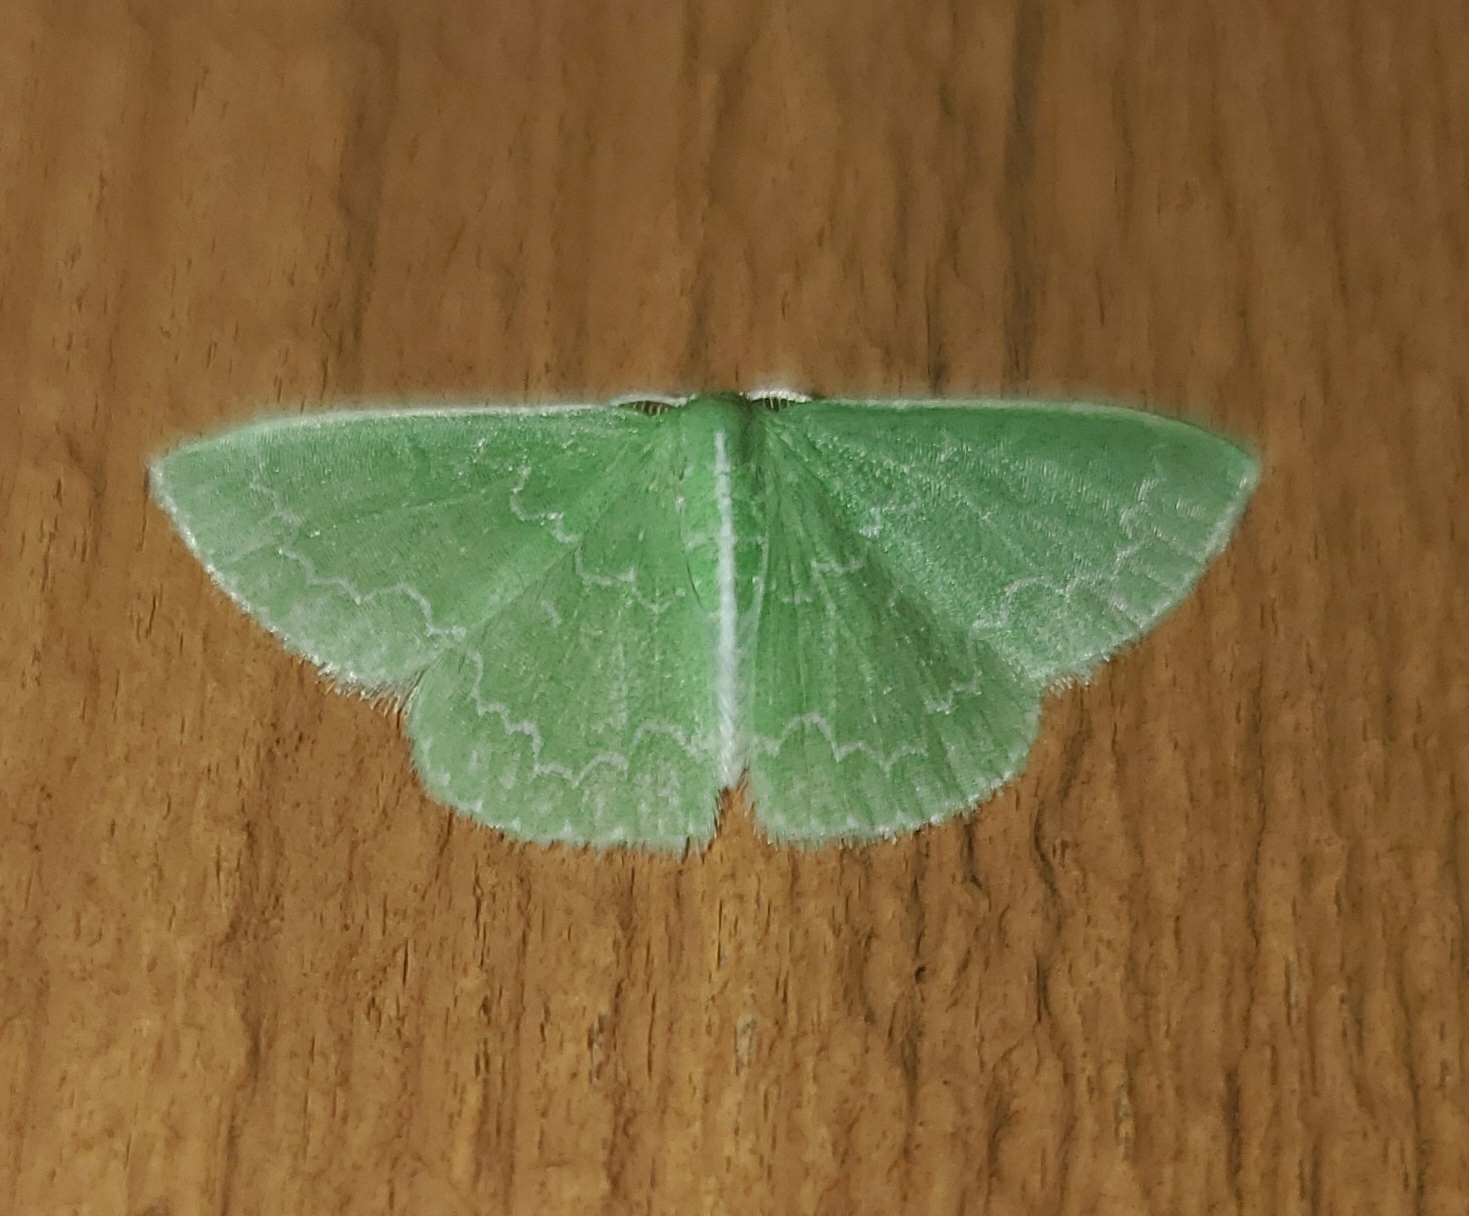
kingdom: Animalia
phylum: Arthropoda
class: Insecta
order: Lepidoptera
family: Geometridae
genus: Synchlora
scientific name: Synchlora frondaria
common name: Southern emerald
